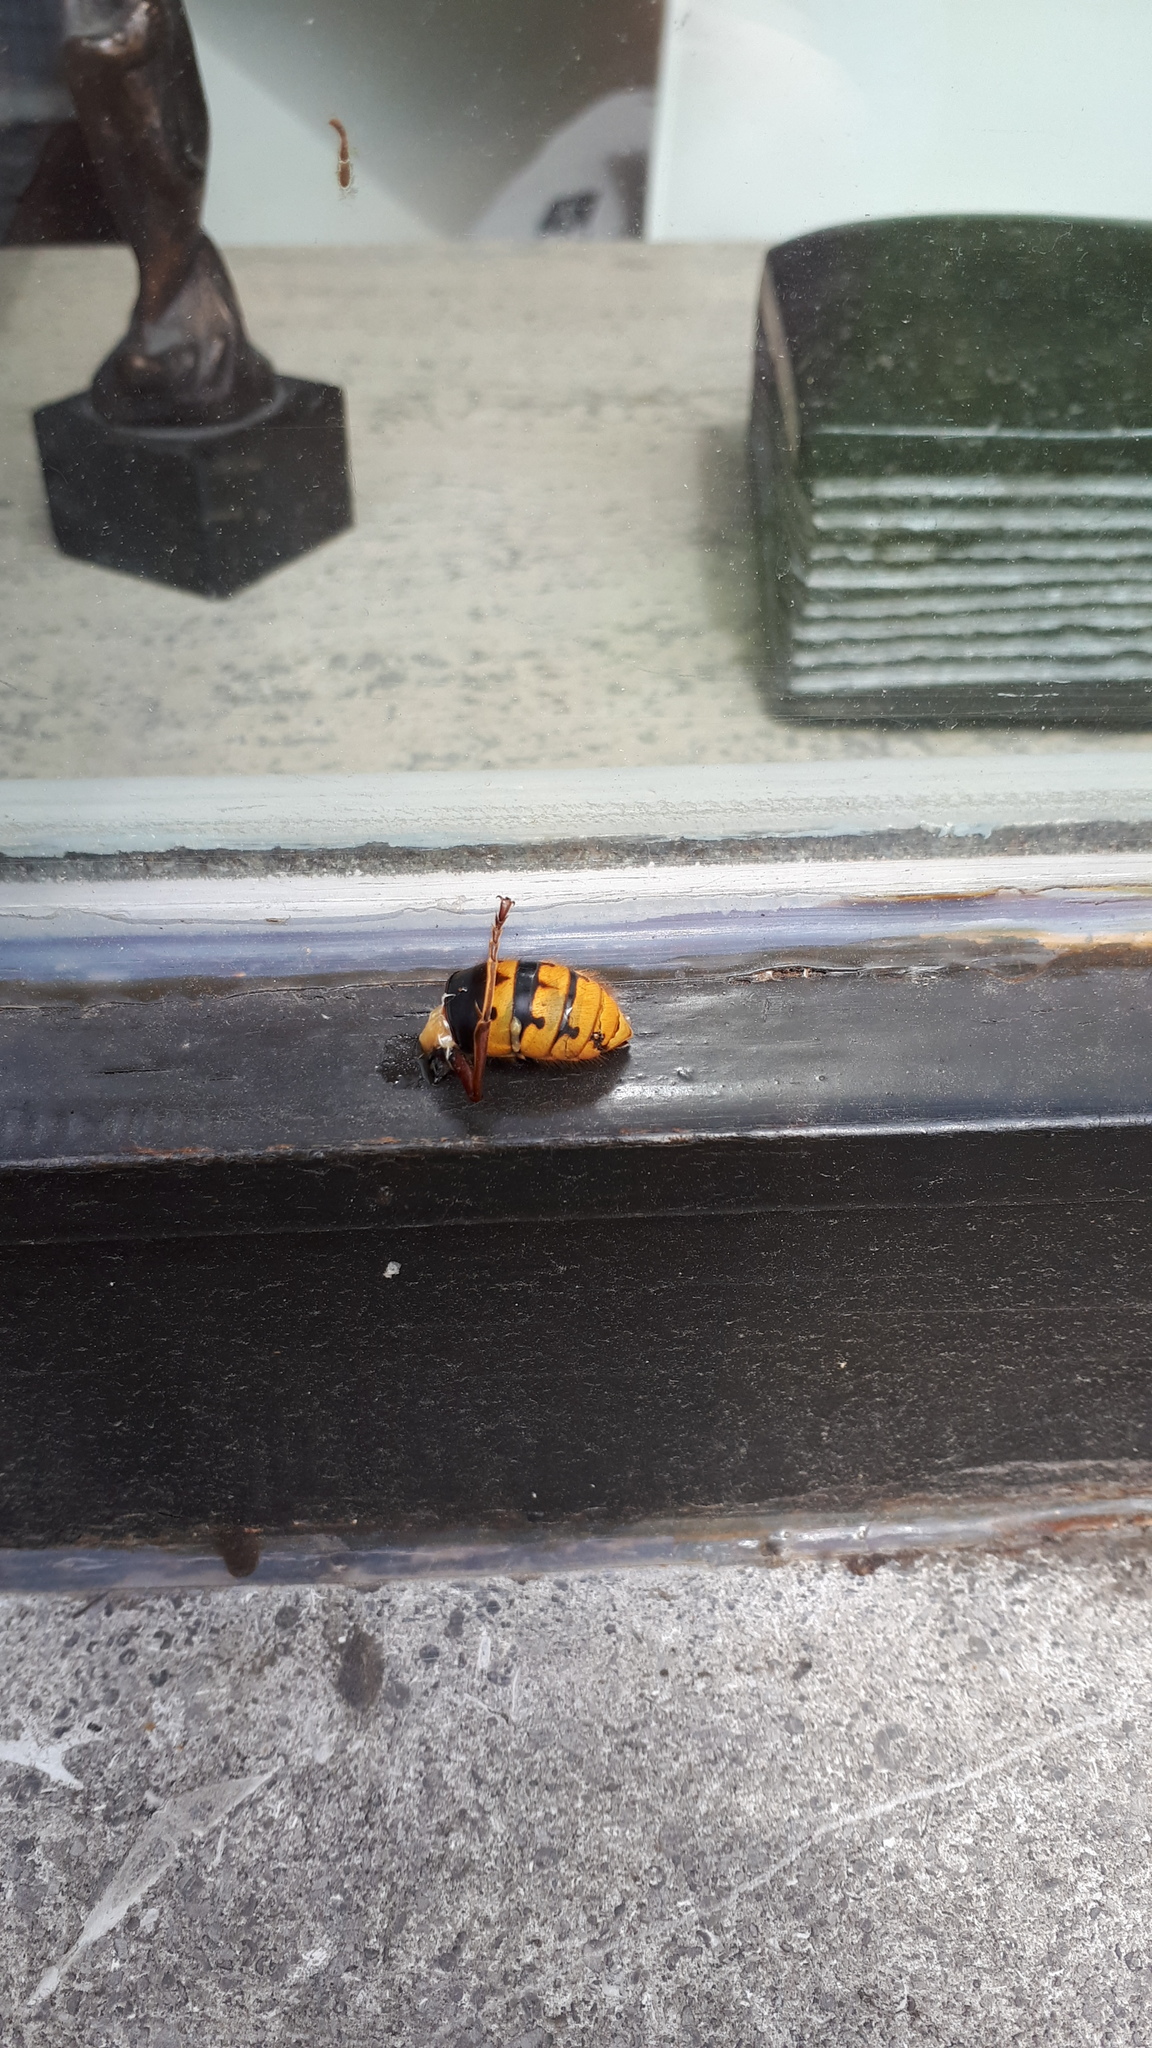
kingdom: Animalia
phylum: Arthropoda
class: Insecta
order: Hymenoptera
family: Vespidae
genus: Vespa
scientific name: Vespa crabro
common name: Hornet
